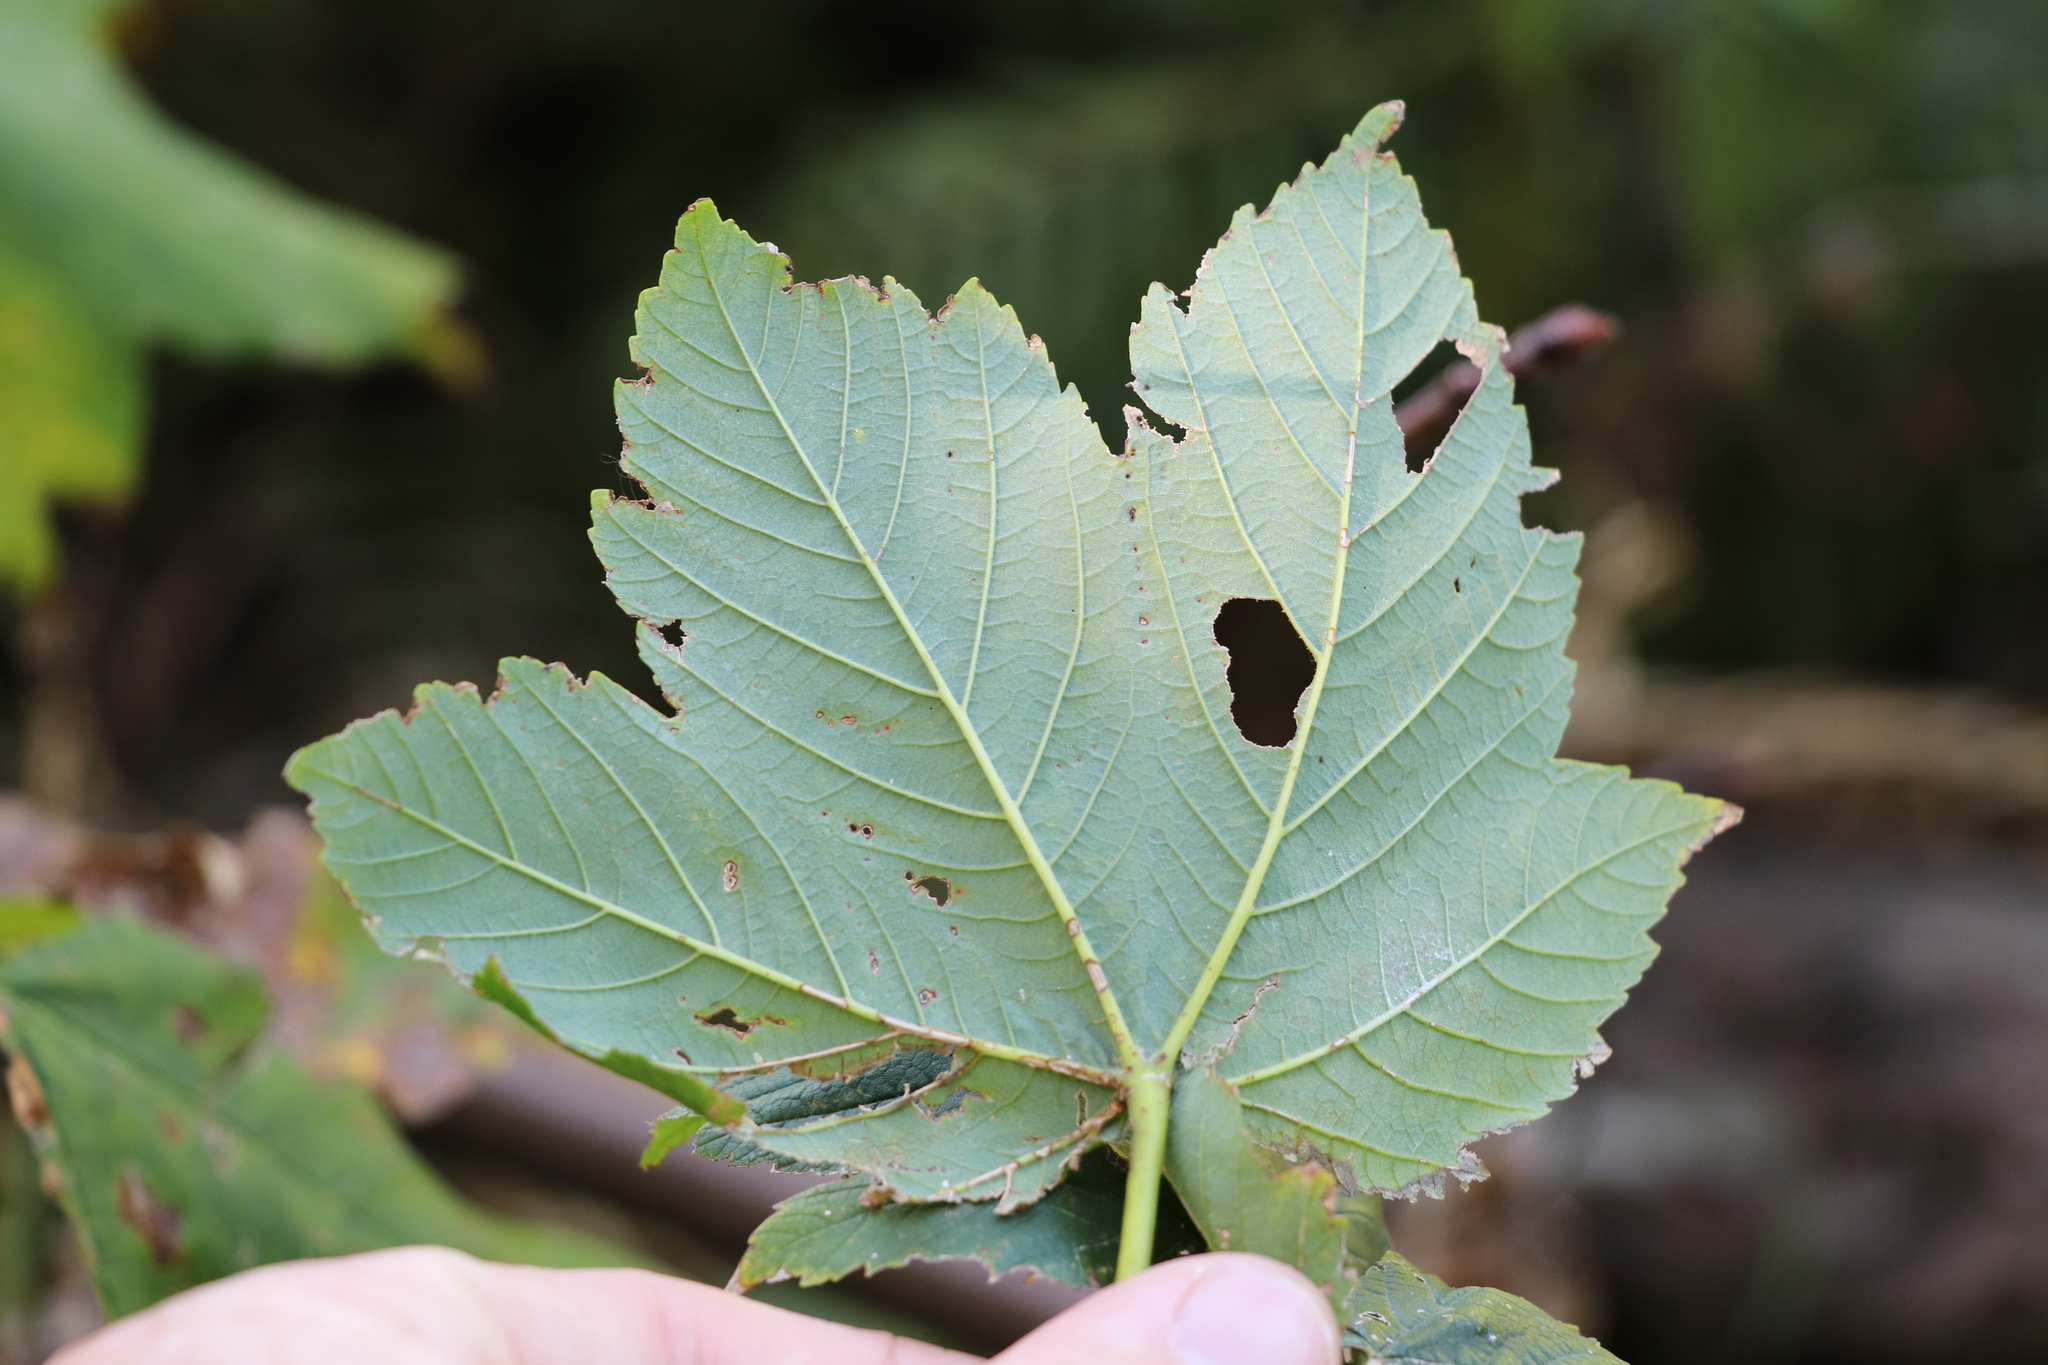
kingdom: Plantae
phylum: Tracheophyta
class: Magnoliopsida
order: Sapindales
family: Sapindaceae
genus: Acer
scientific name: Acer pseudoplatanus
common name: Sycamore
